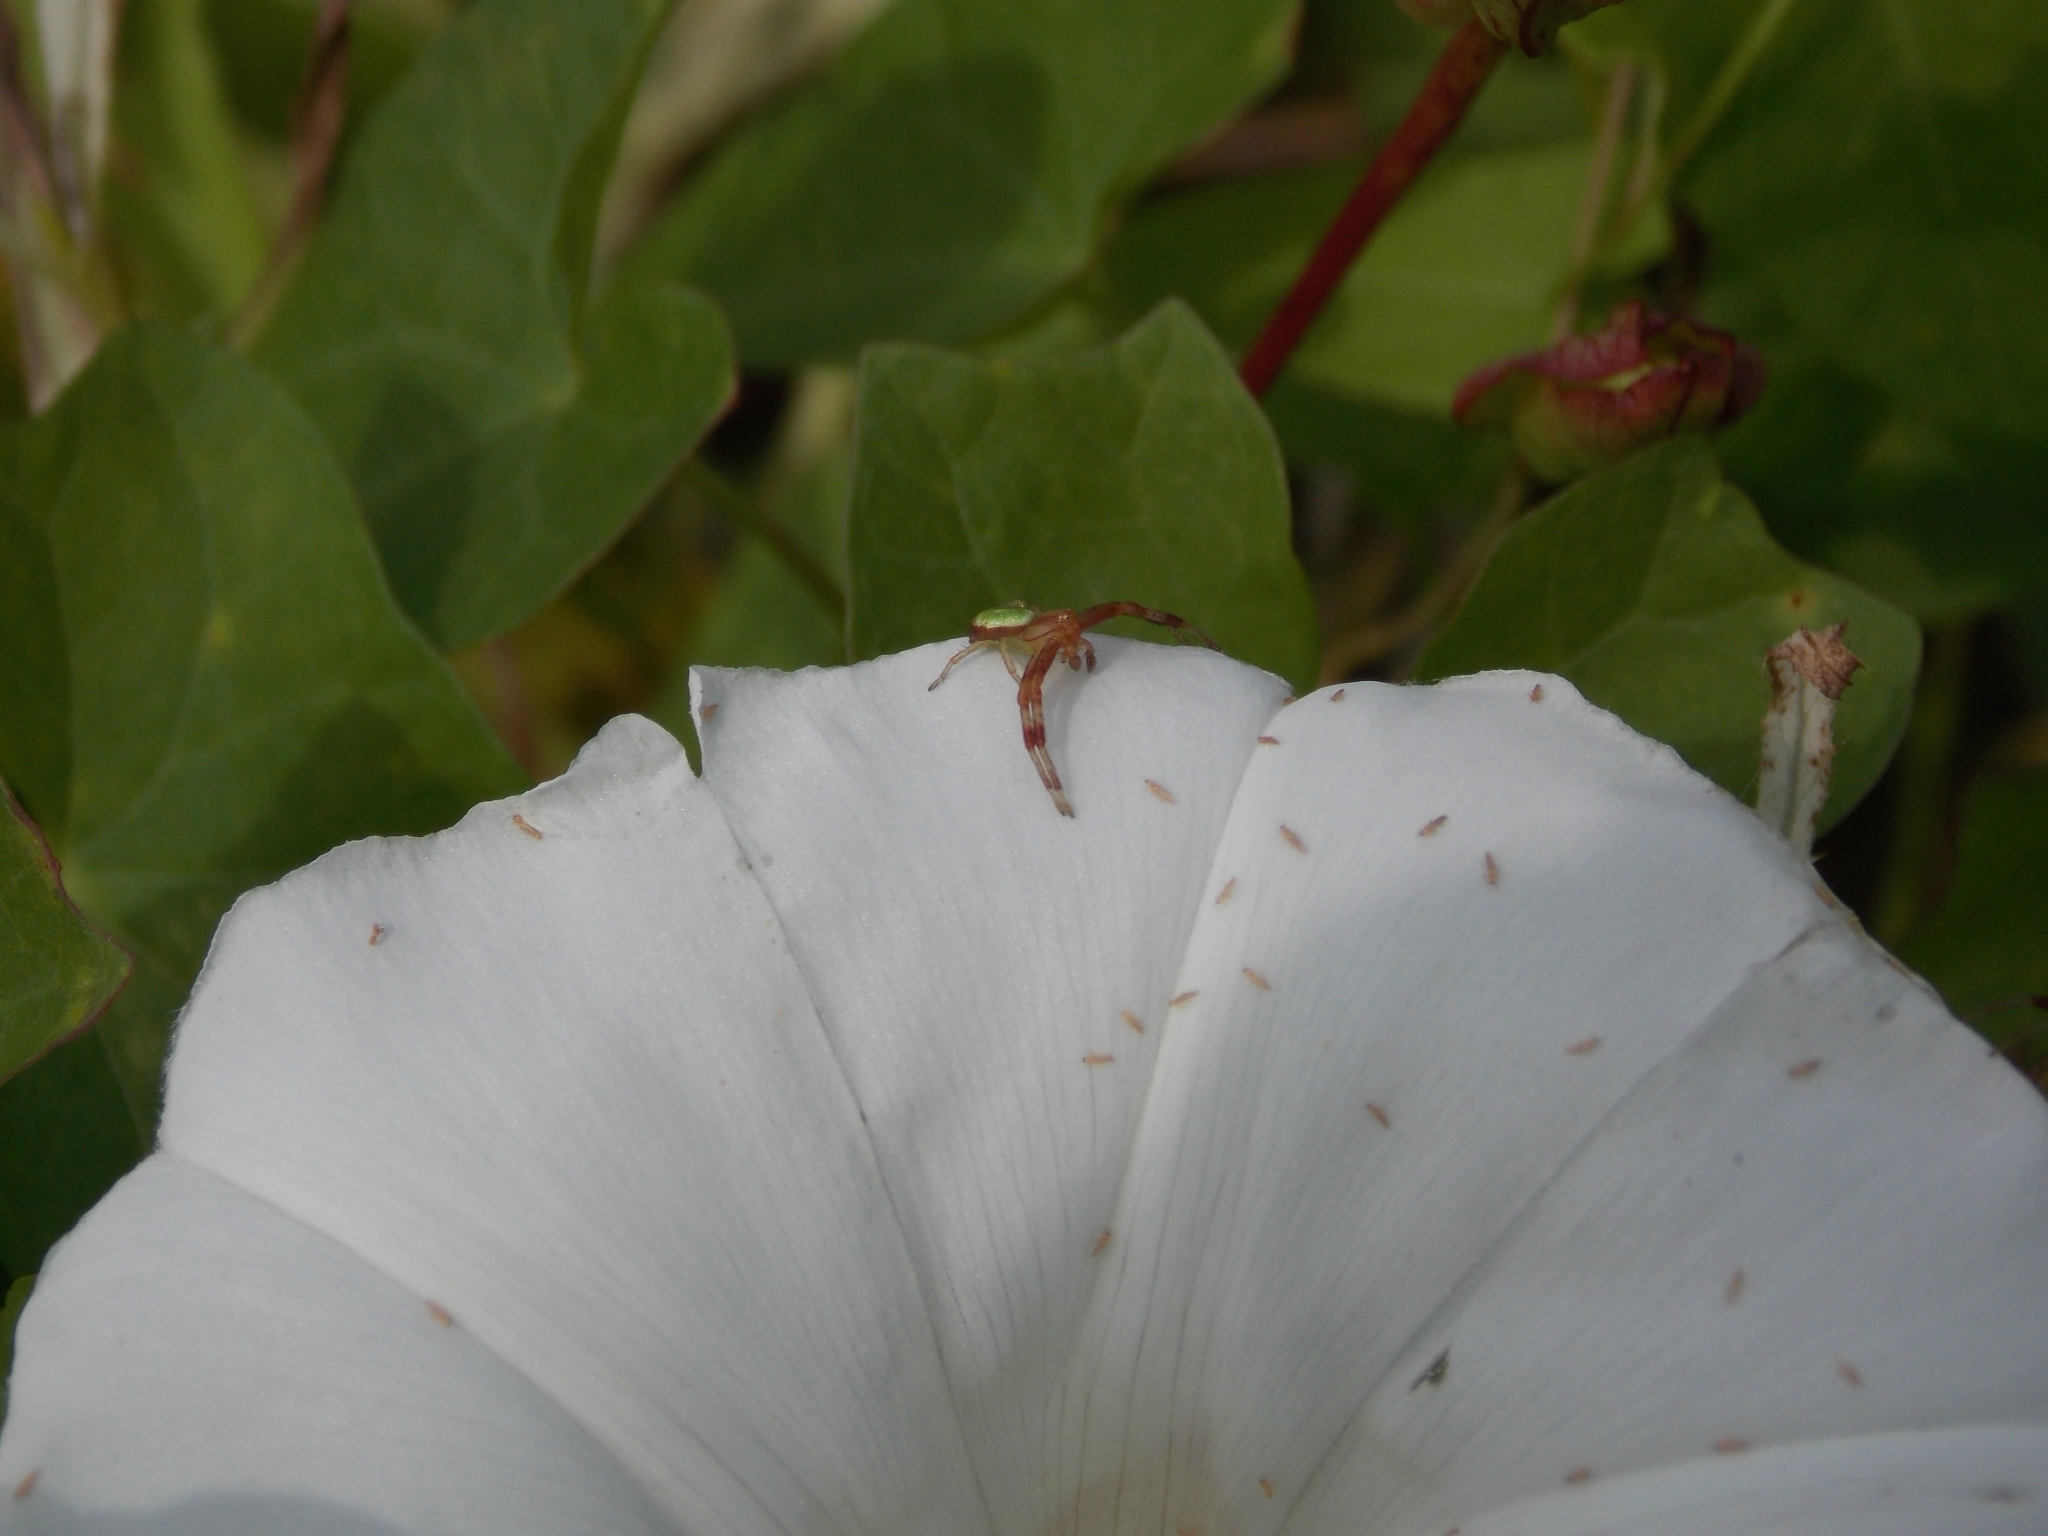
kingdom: Animalia
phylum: Arthropoda
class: Arachnida
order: Araneae
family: Thomisidae
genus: Ebrechtella
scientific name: Ebrechtella tricuspidata
